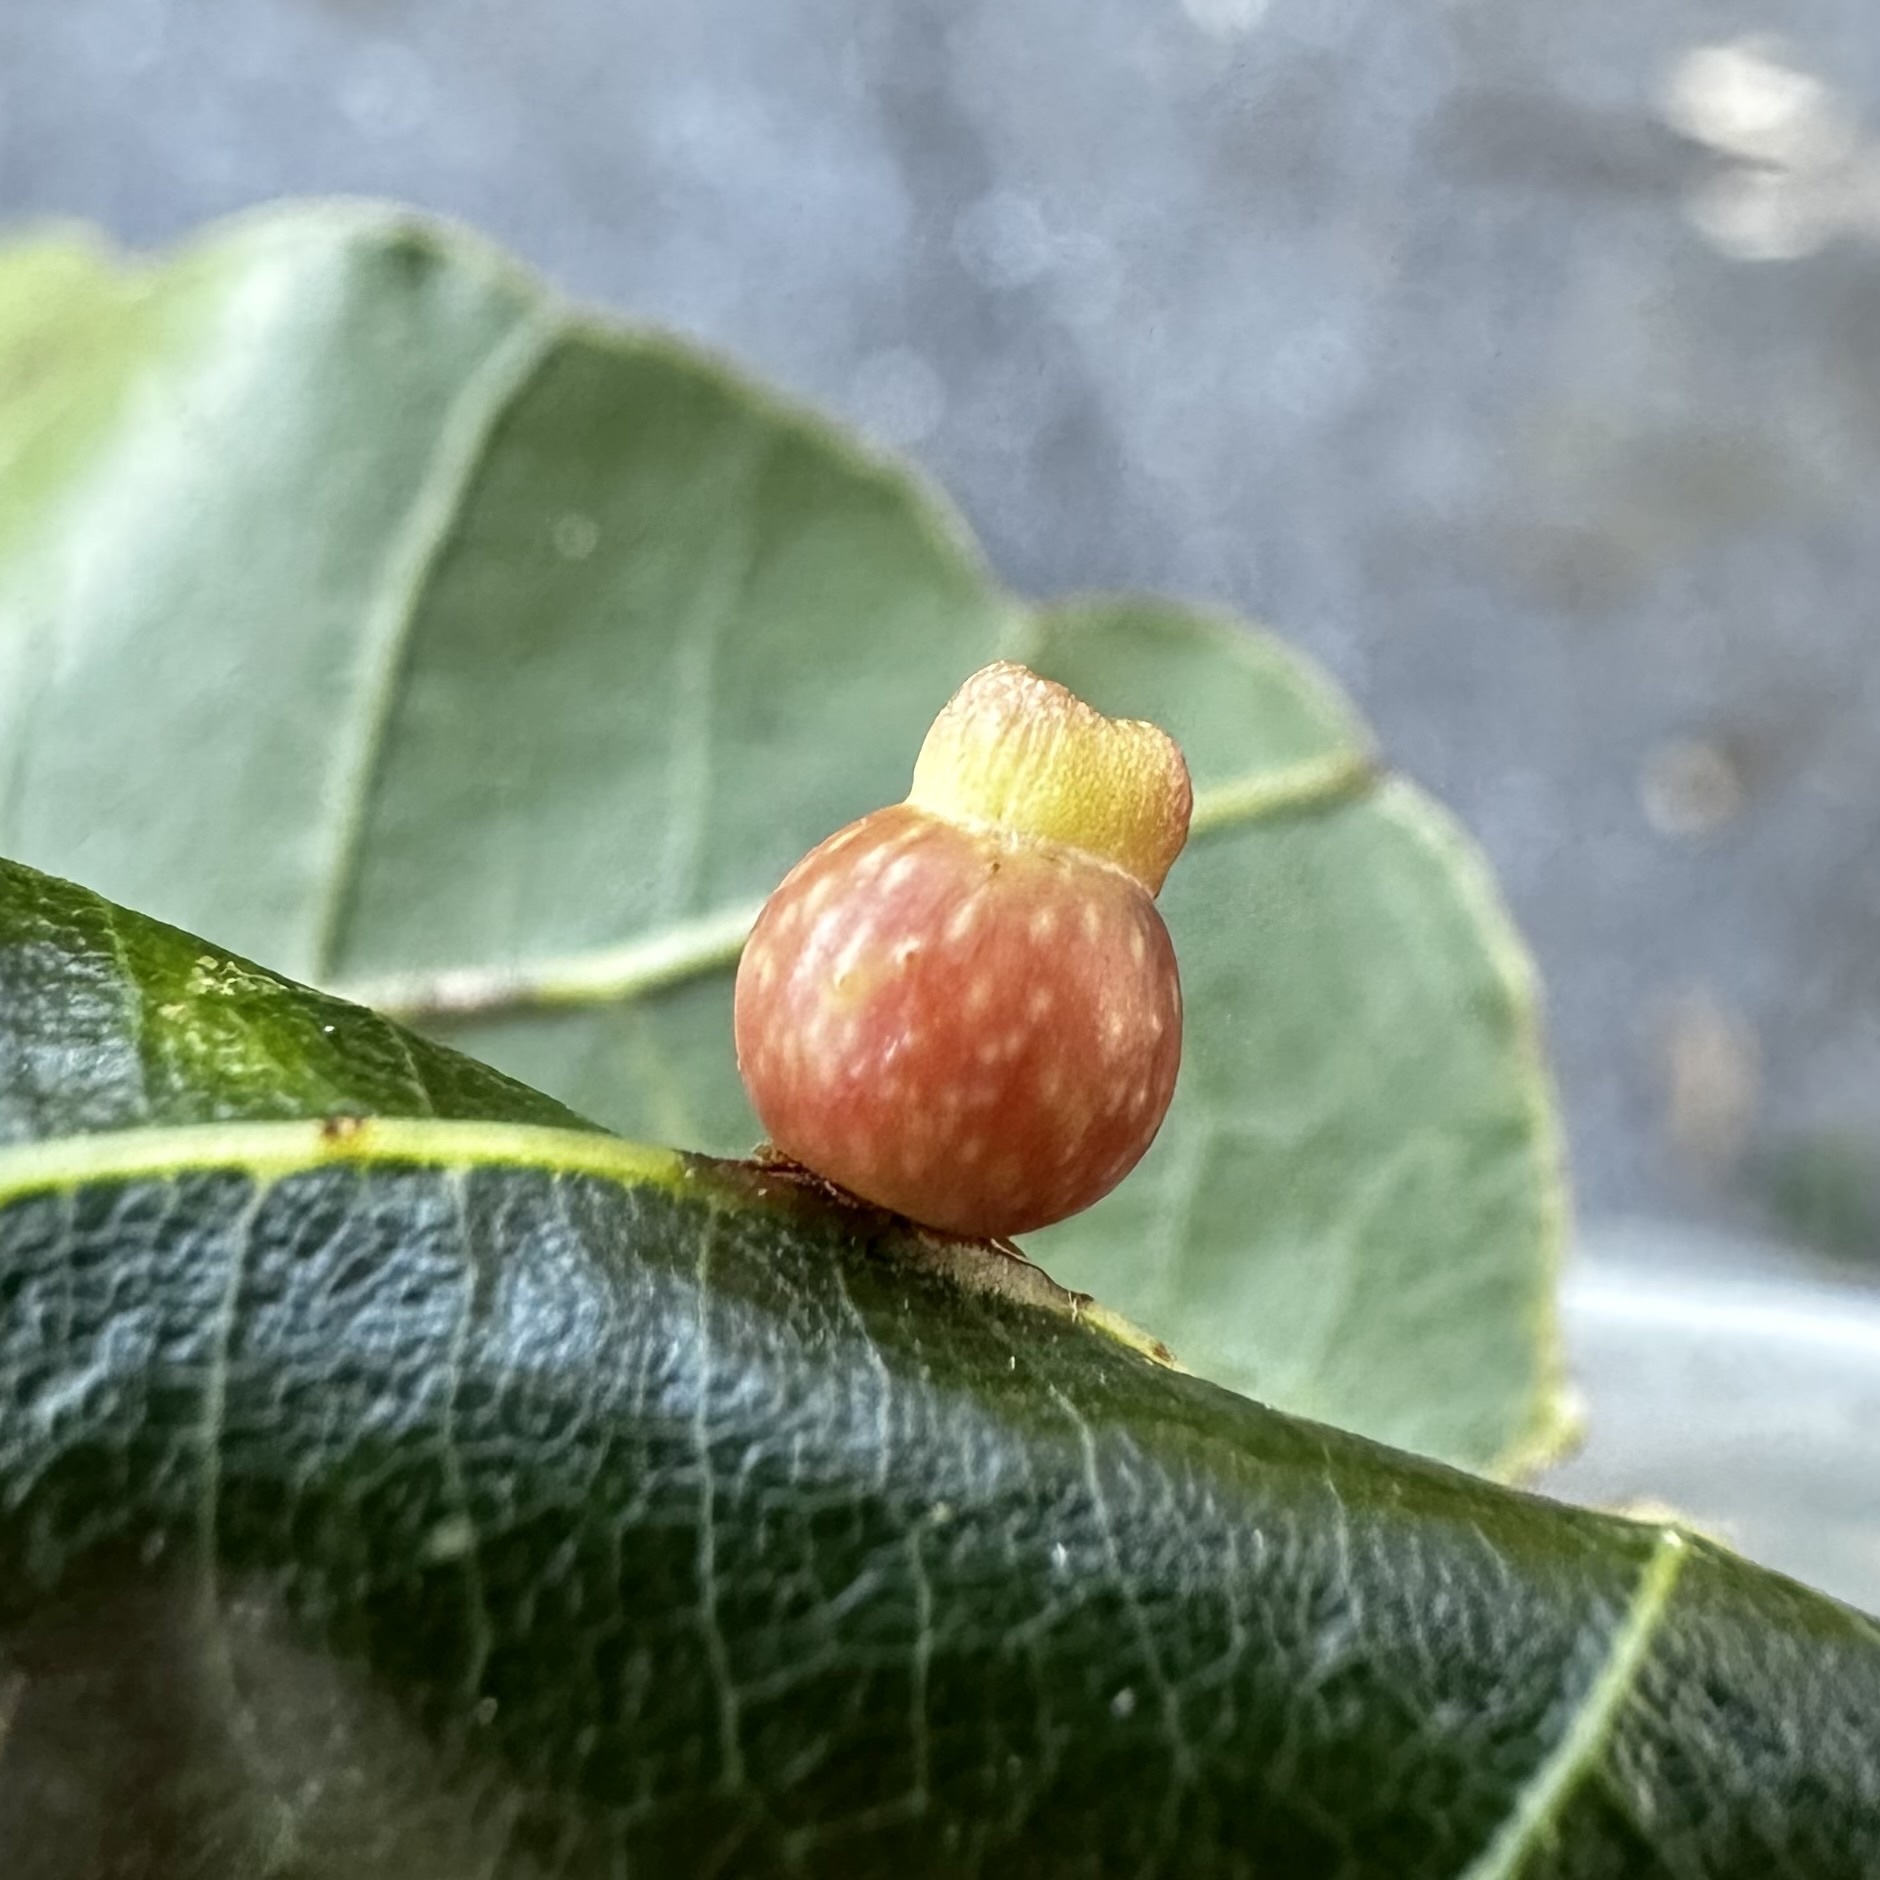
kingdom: Animalia
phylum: Arthropoda
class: Insecta
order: Hymenoptera
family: Cynipidae
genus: Kokkocynips
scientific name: Kokkocynips rileyi
